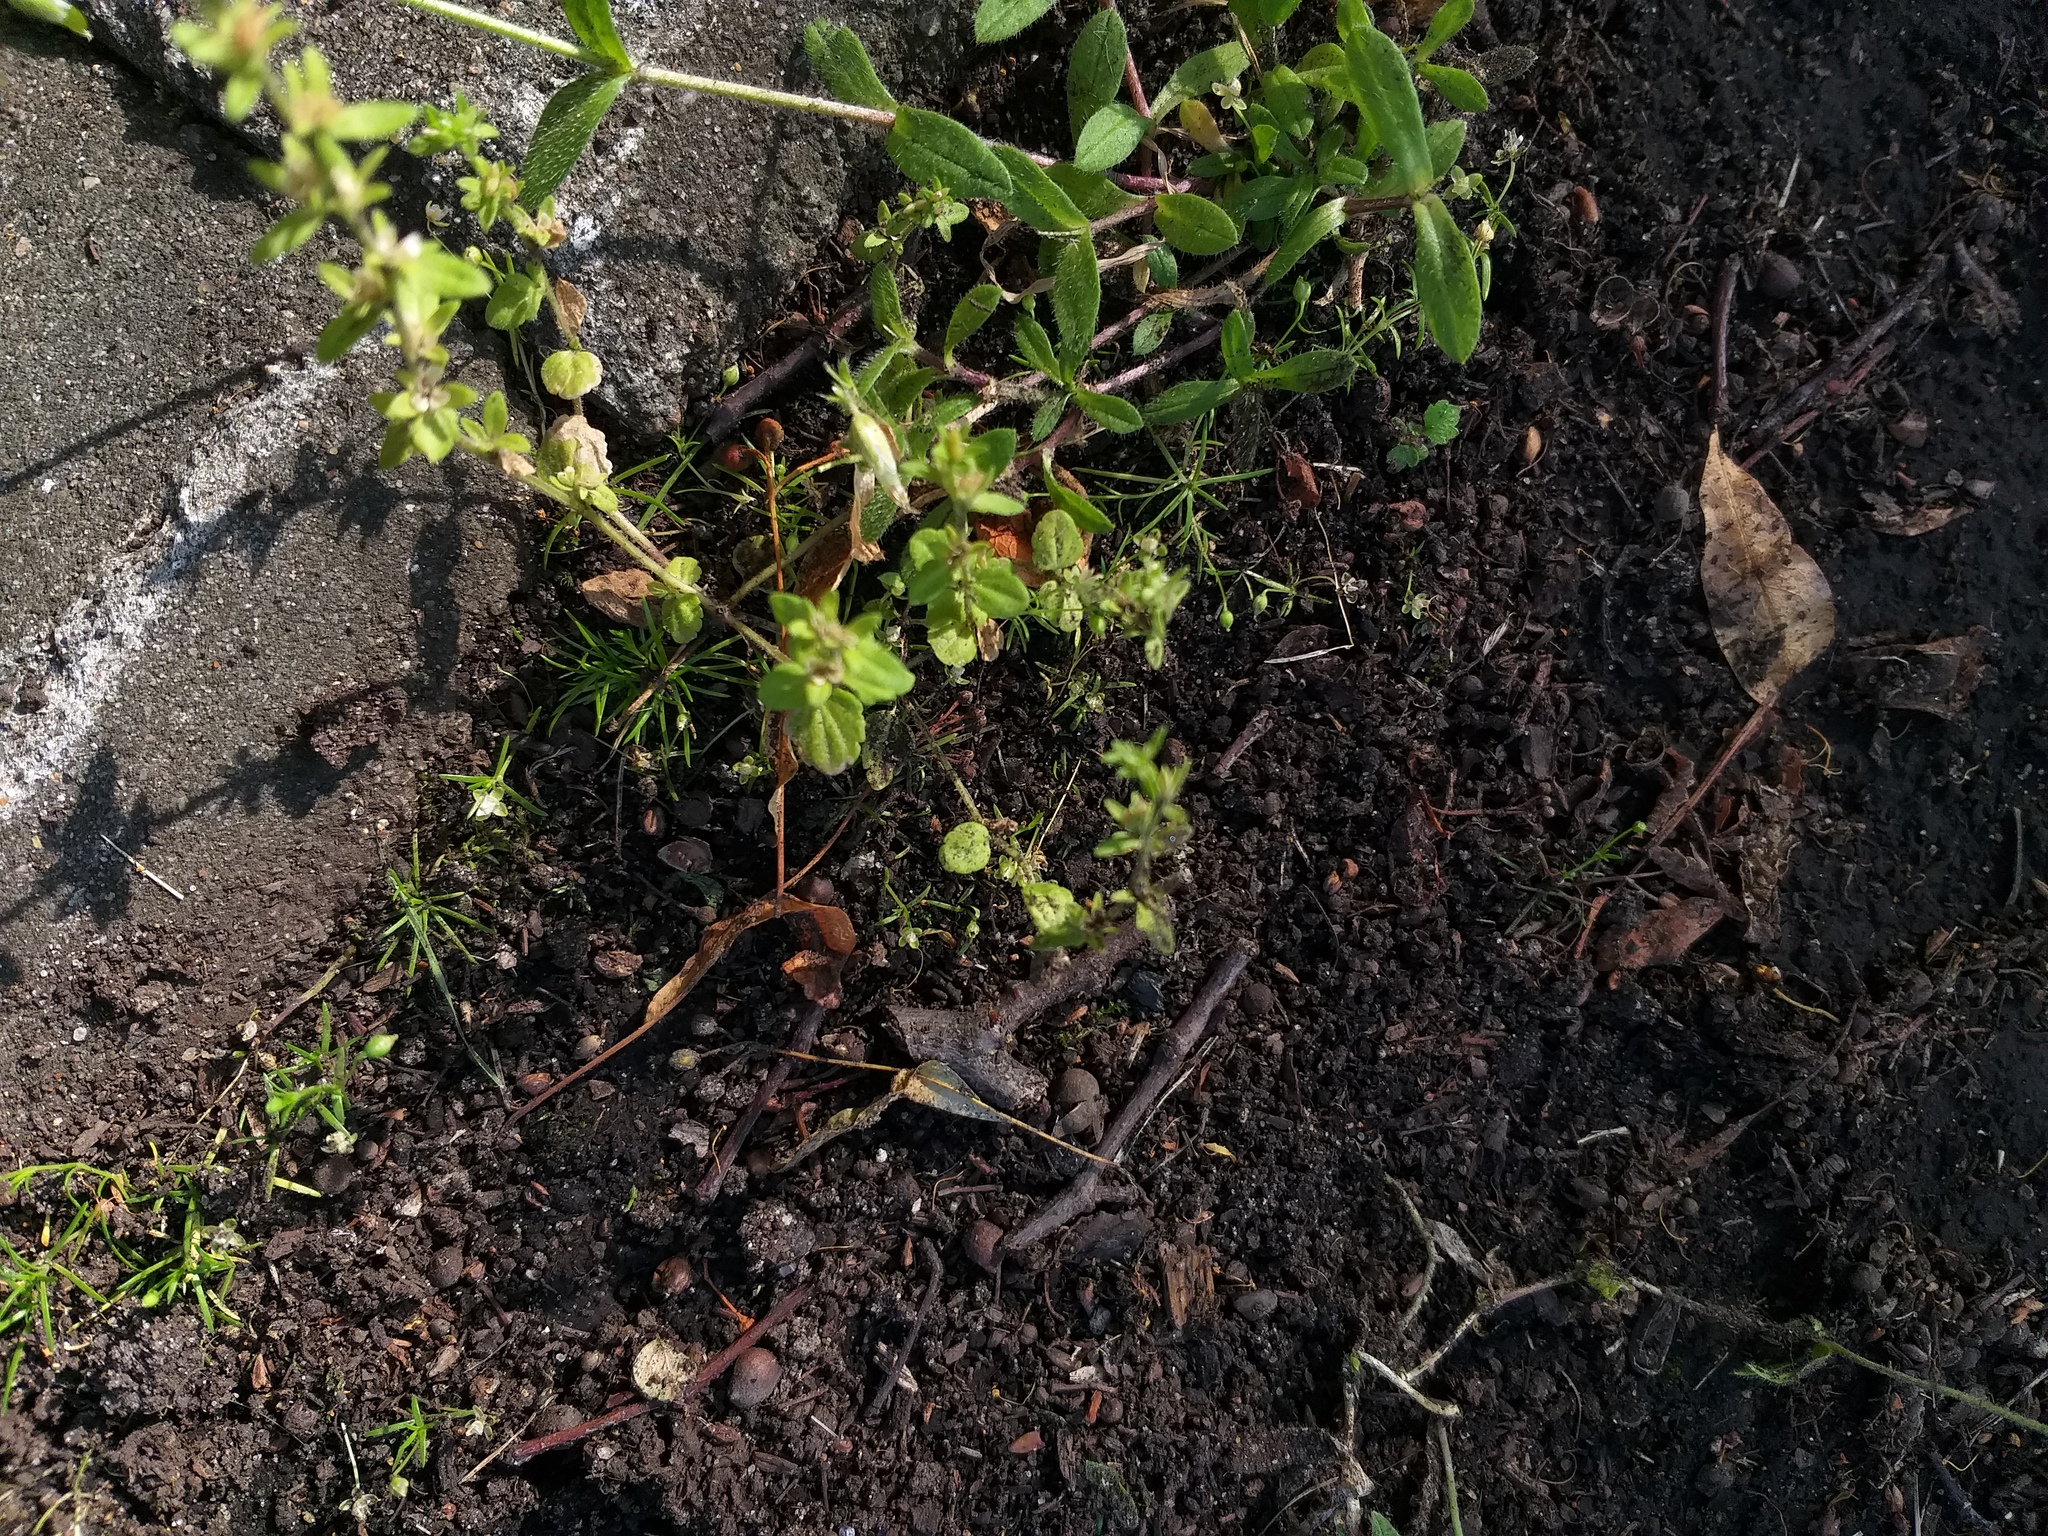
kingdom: Plantae
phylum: Tracheophyta
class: Magnoliopsida
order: Lamiales
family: Plantaginaceae
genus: Veronica
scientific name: Veronica arvensis
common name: Corn speedwell
